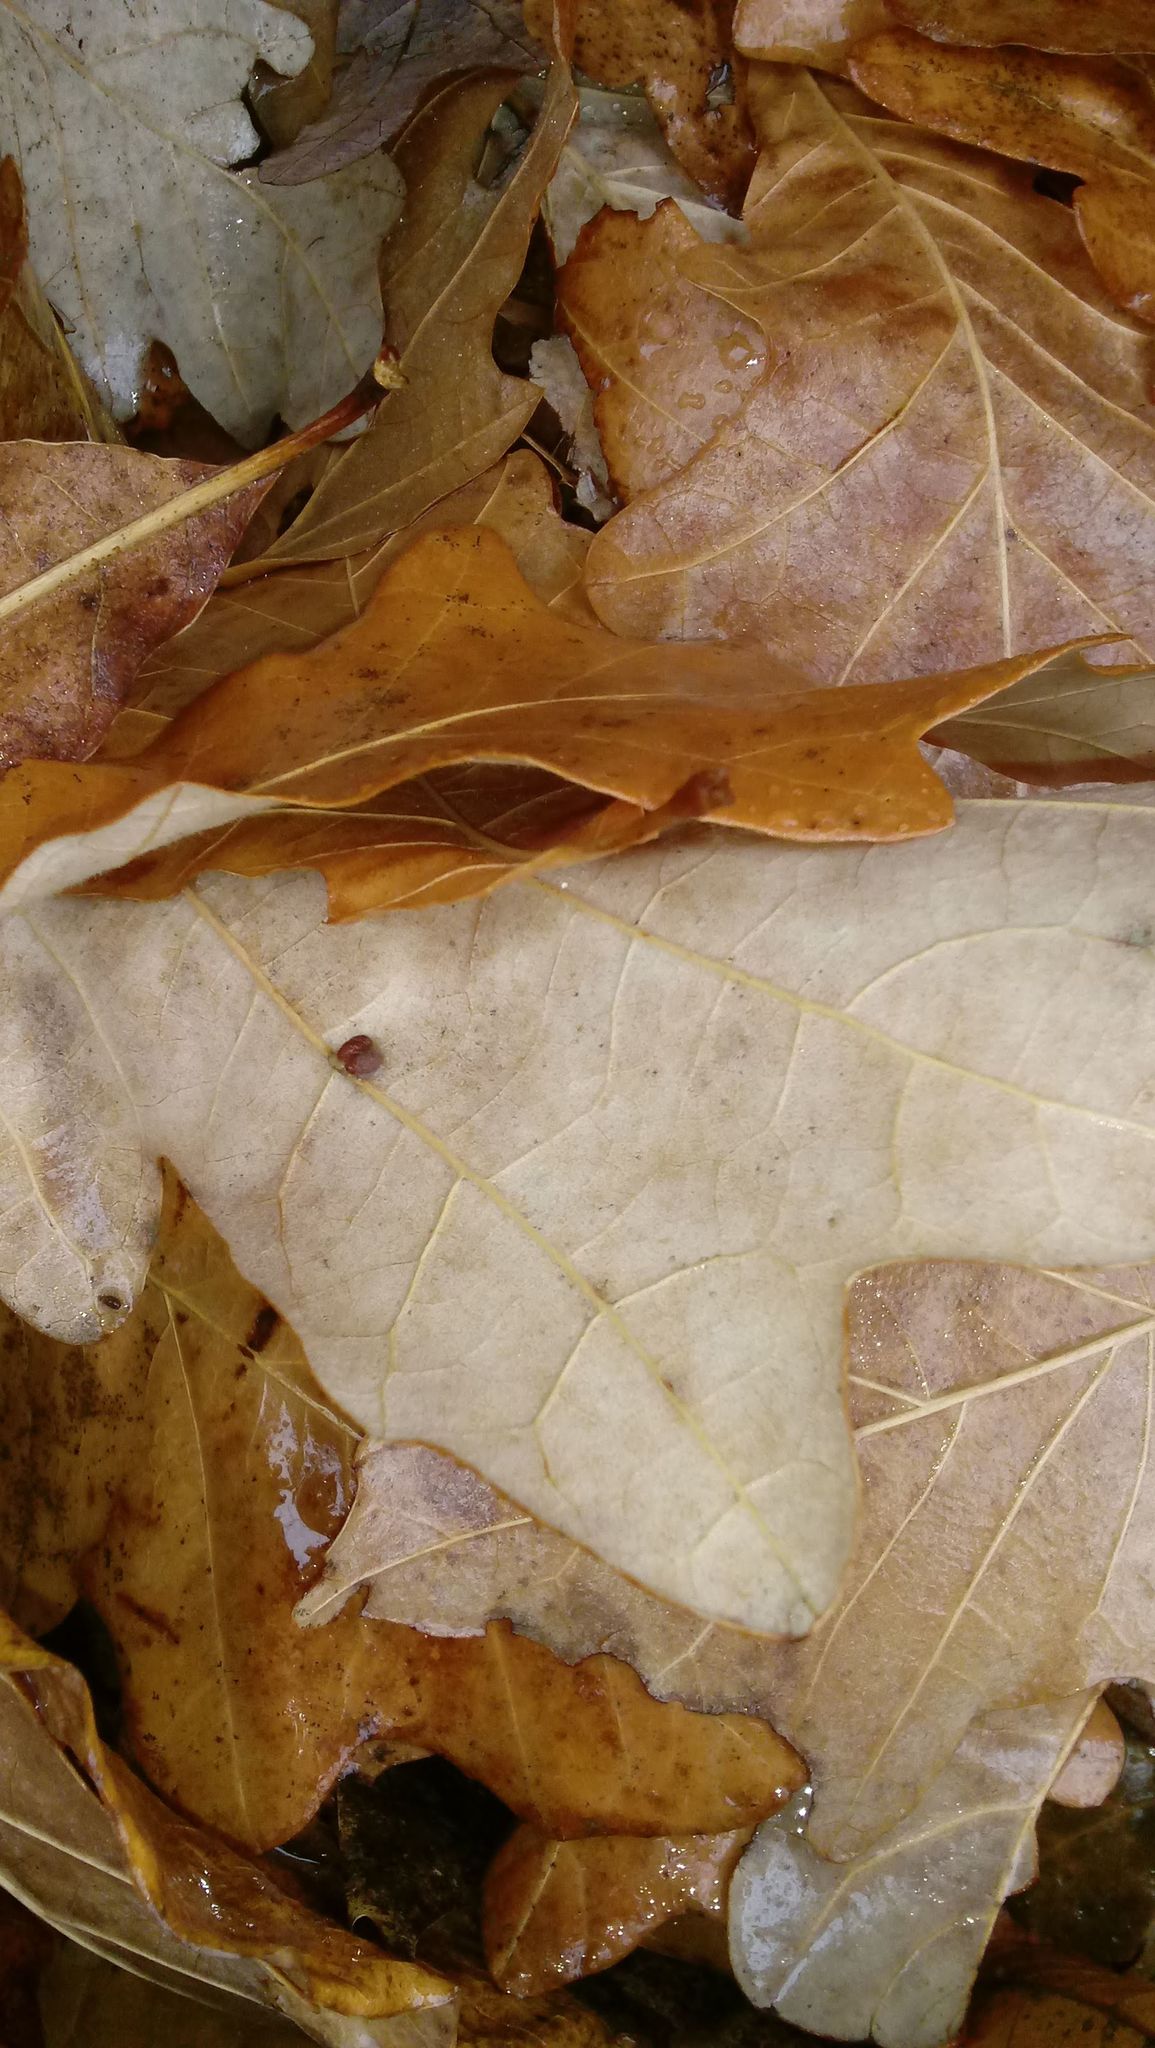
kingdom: Animalia
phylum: Arthropoda
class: Insecta
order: Hymenoptera
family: Cynipidae
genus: Andricus
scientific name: Andricus Druon ignotum
